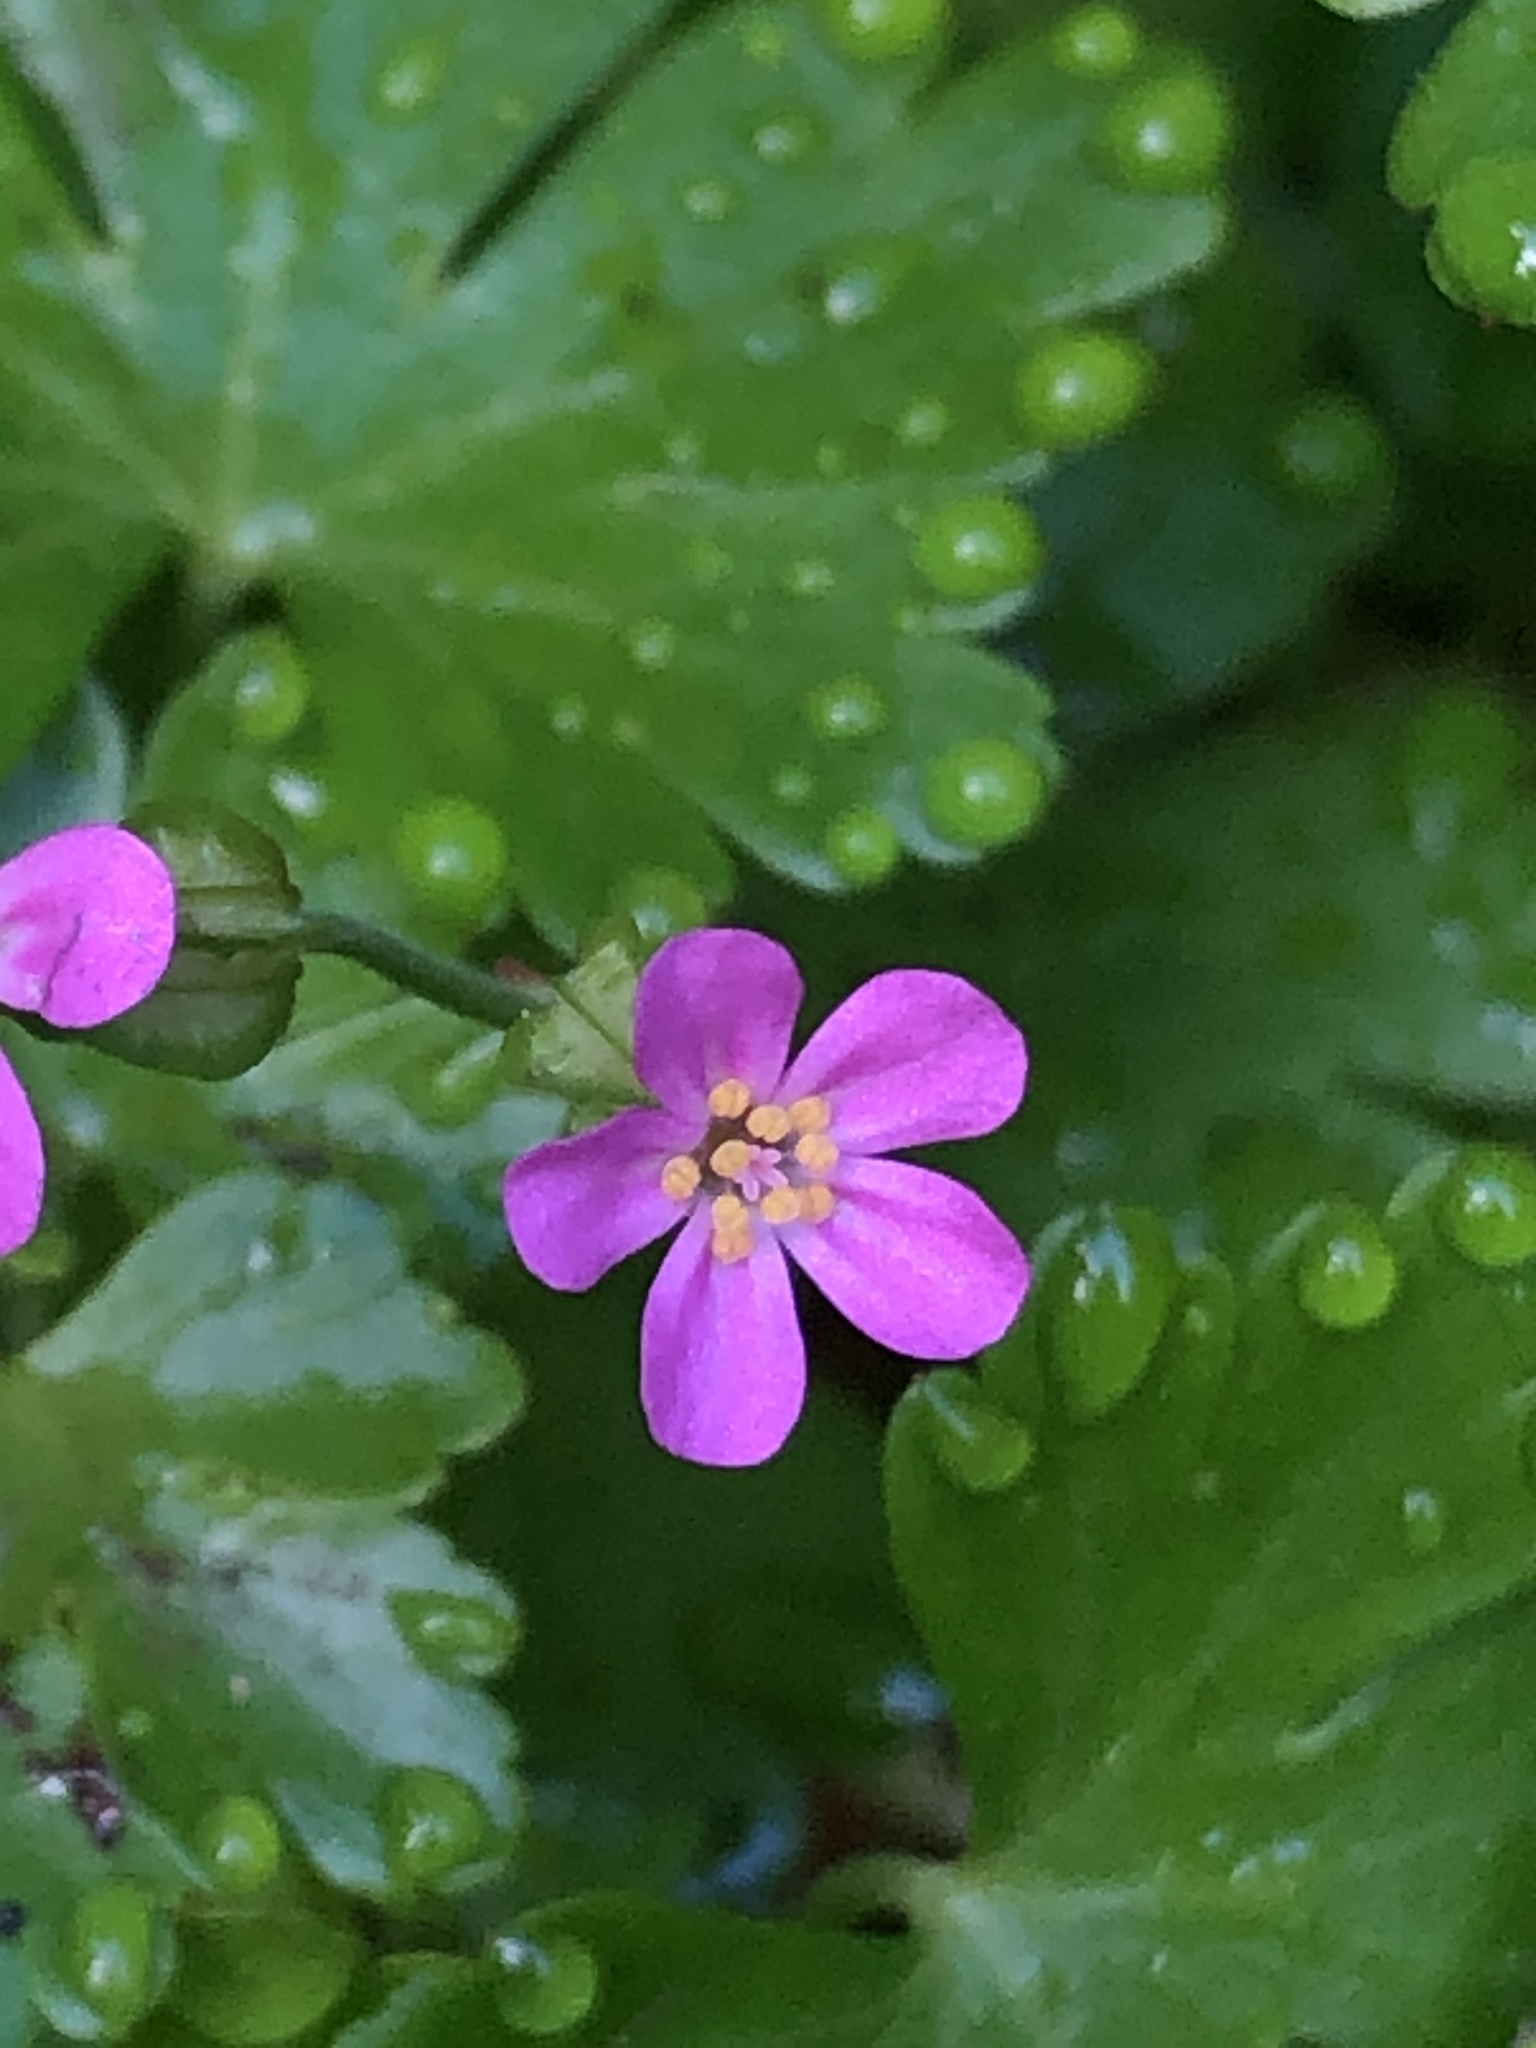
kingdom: Plantae
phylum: Tracheophyta
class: Magnoliopsida
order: Geraniales
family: Geraniaceae
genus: Geranium
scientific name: Geranium lucidum
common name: Shining crane's-bill
